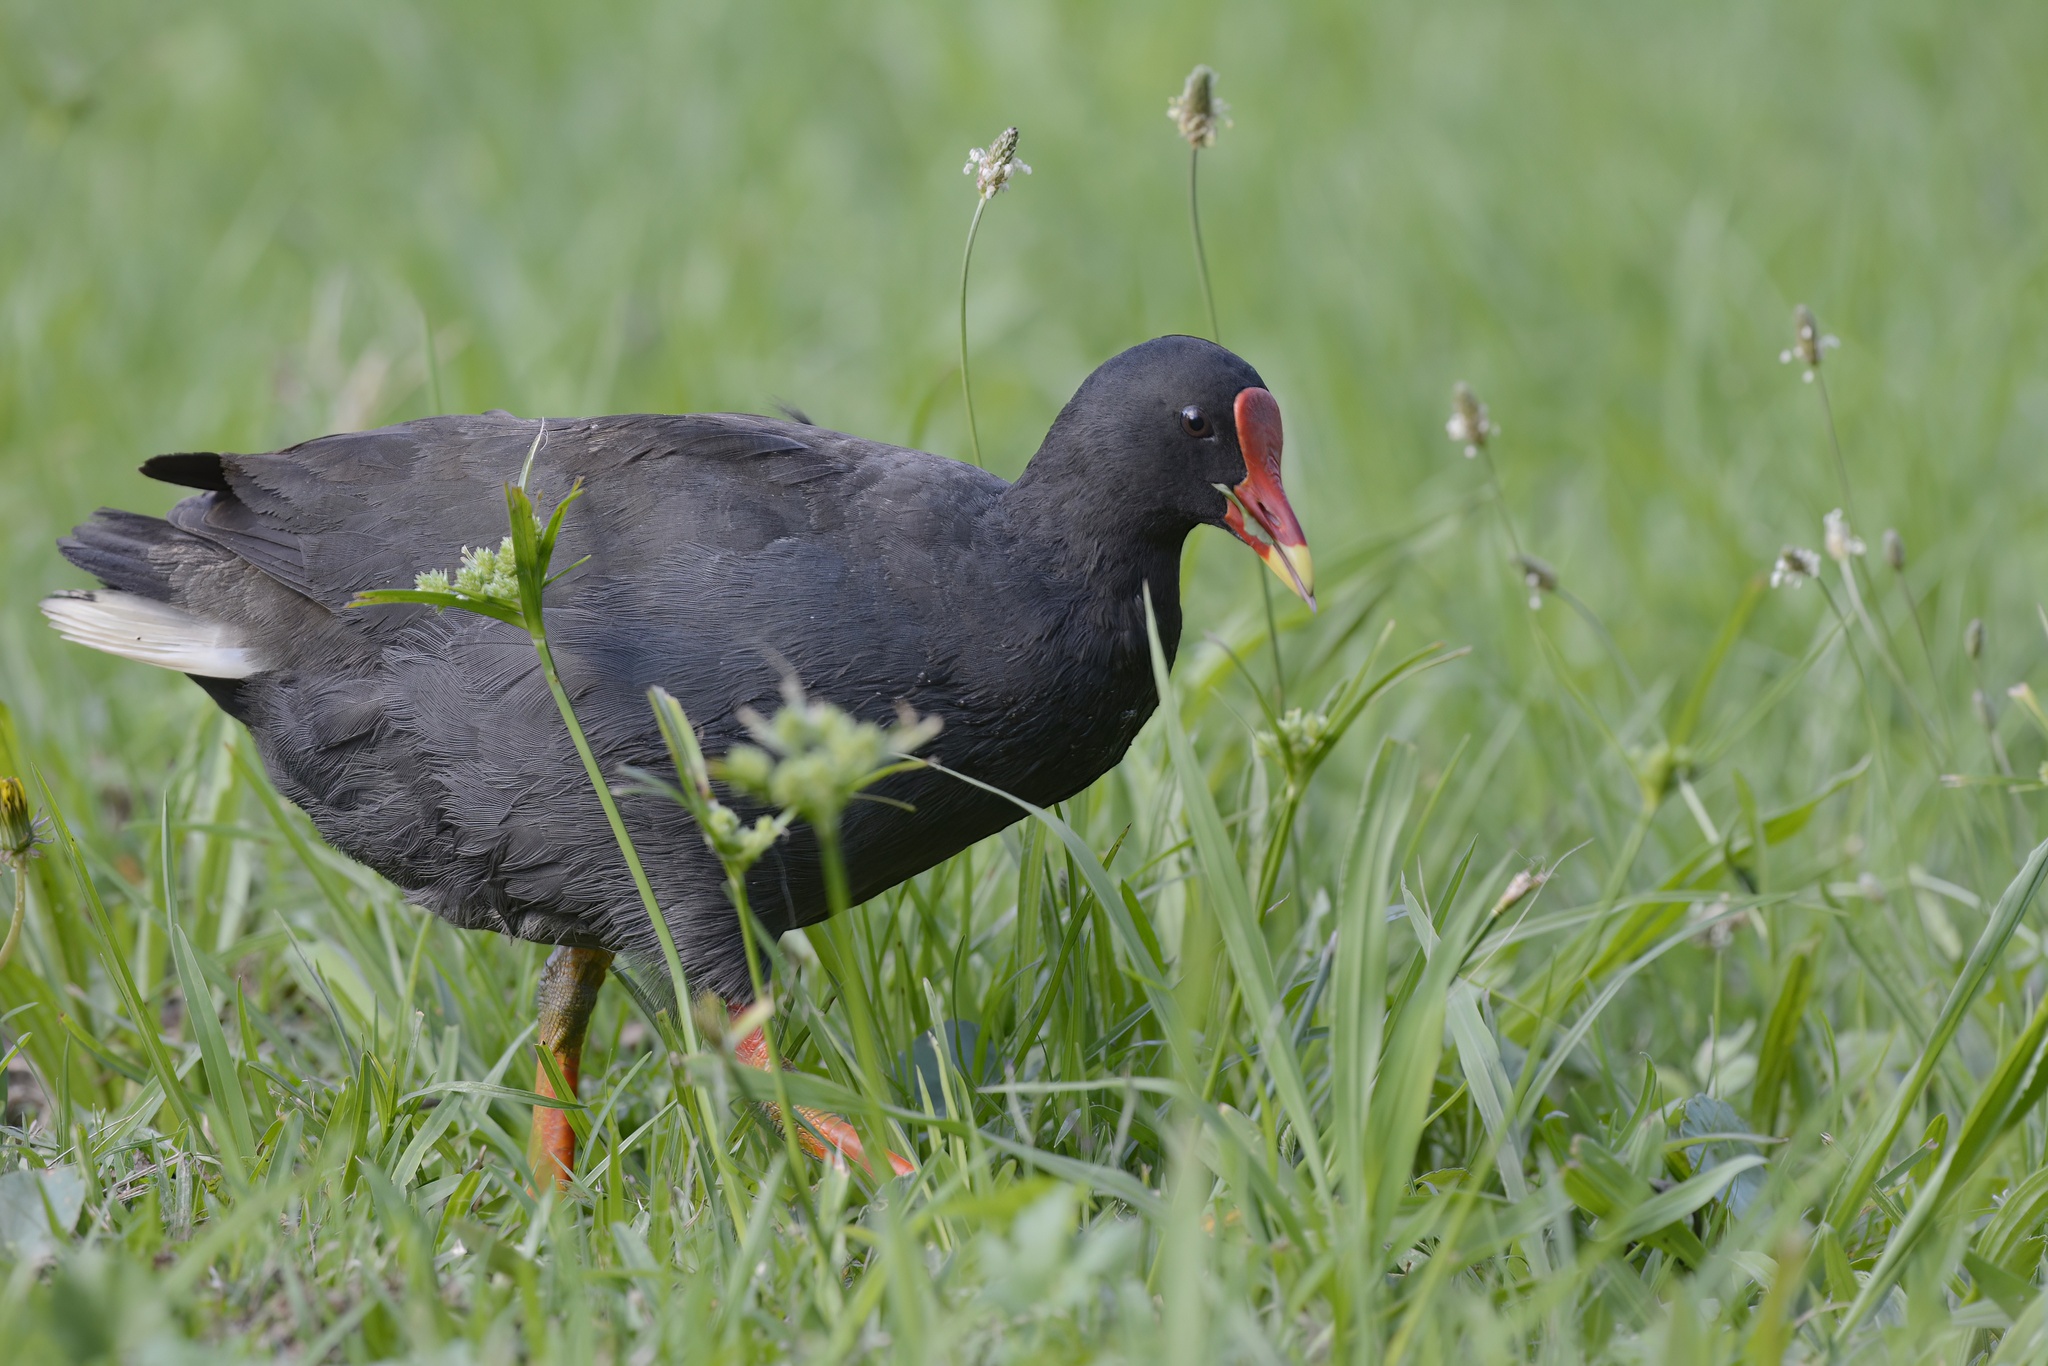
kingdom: Animalia
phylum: Chordata
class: Aves
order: Gruiformes
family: Rallidae
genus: Gallinula
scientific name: Gallinula tenebrosa
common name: Dusky moorhen
